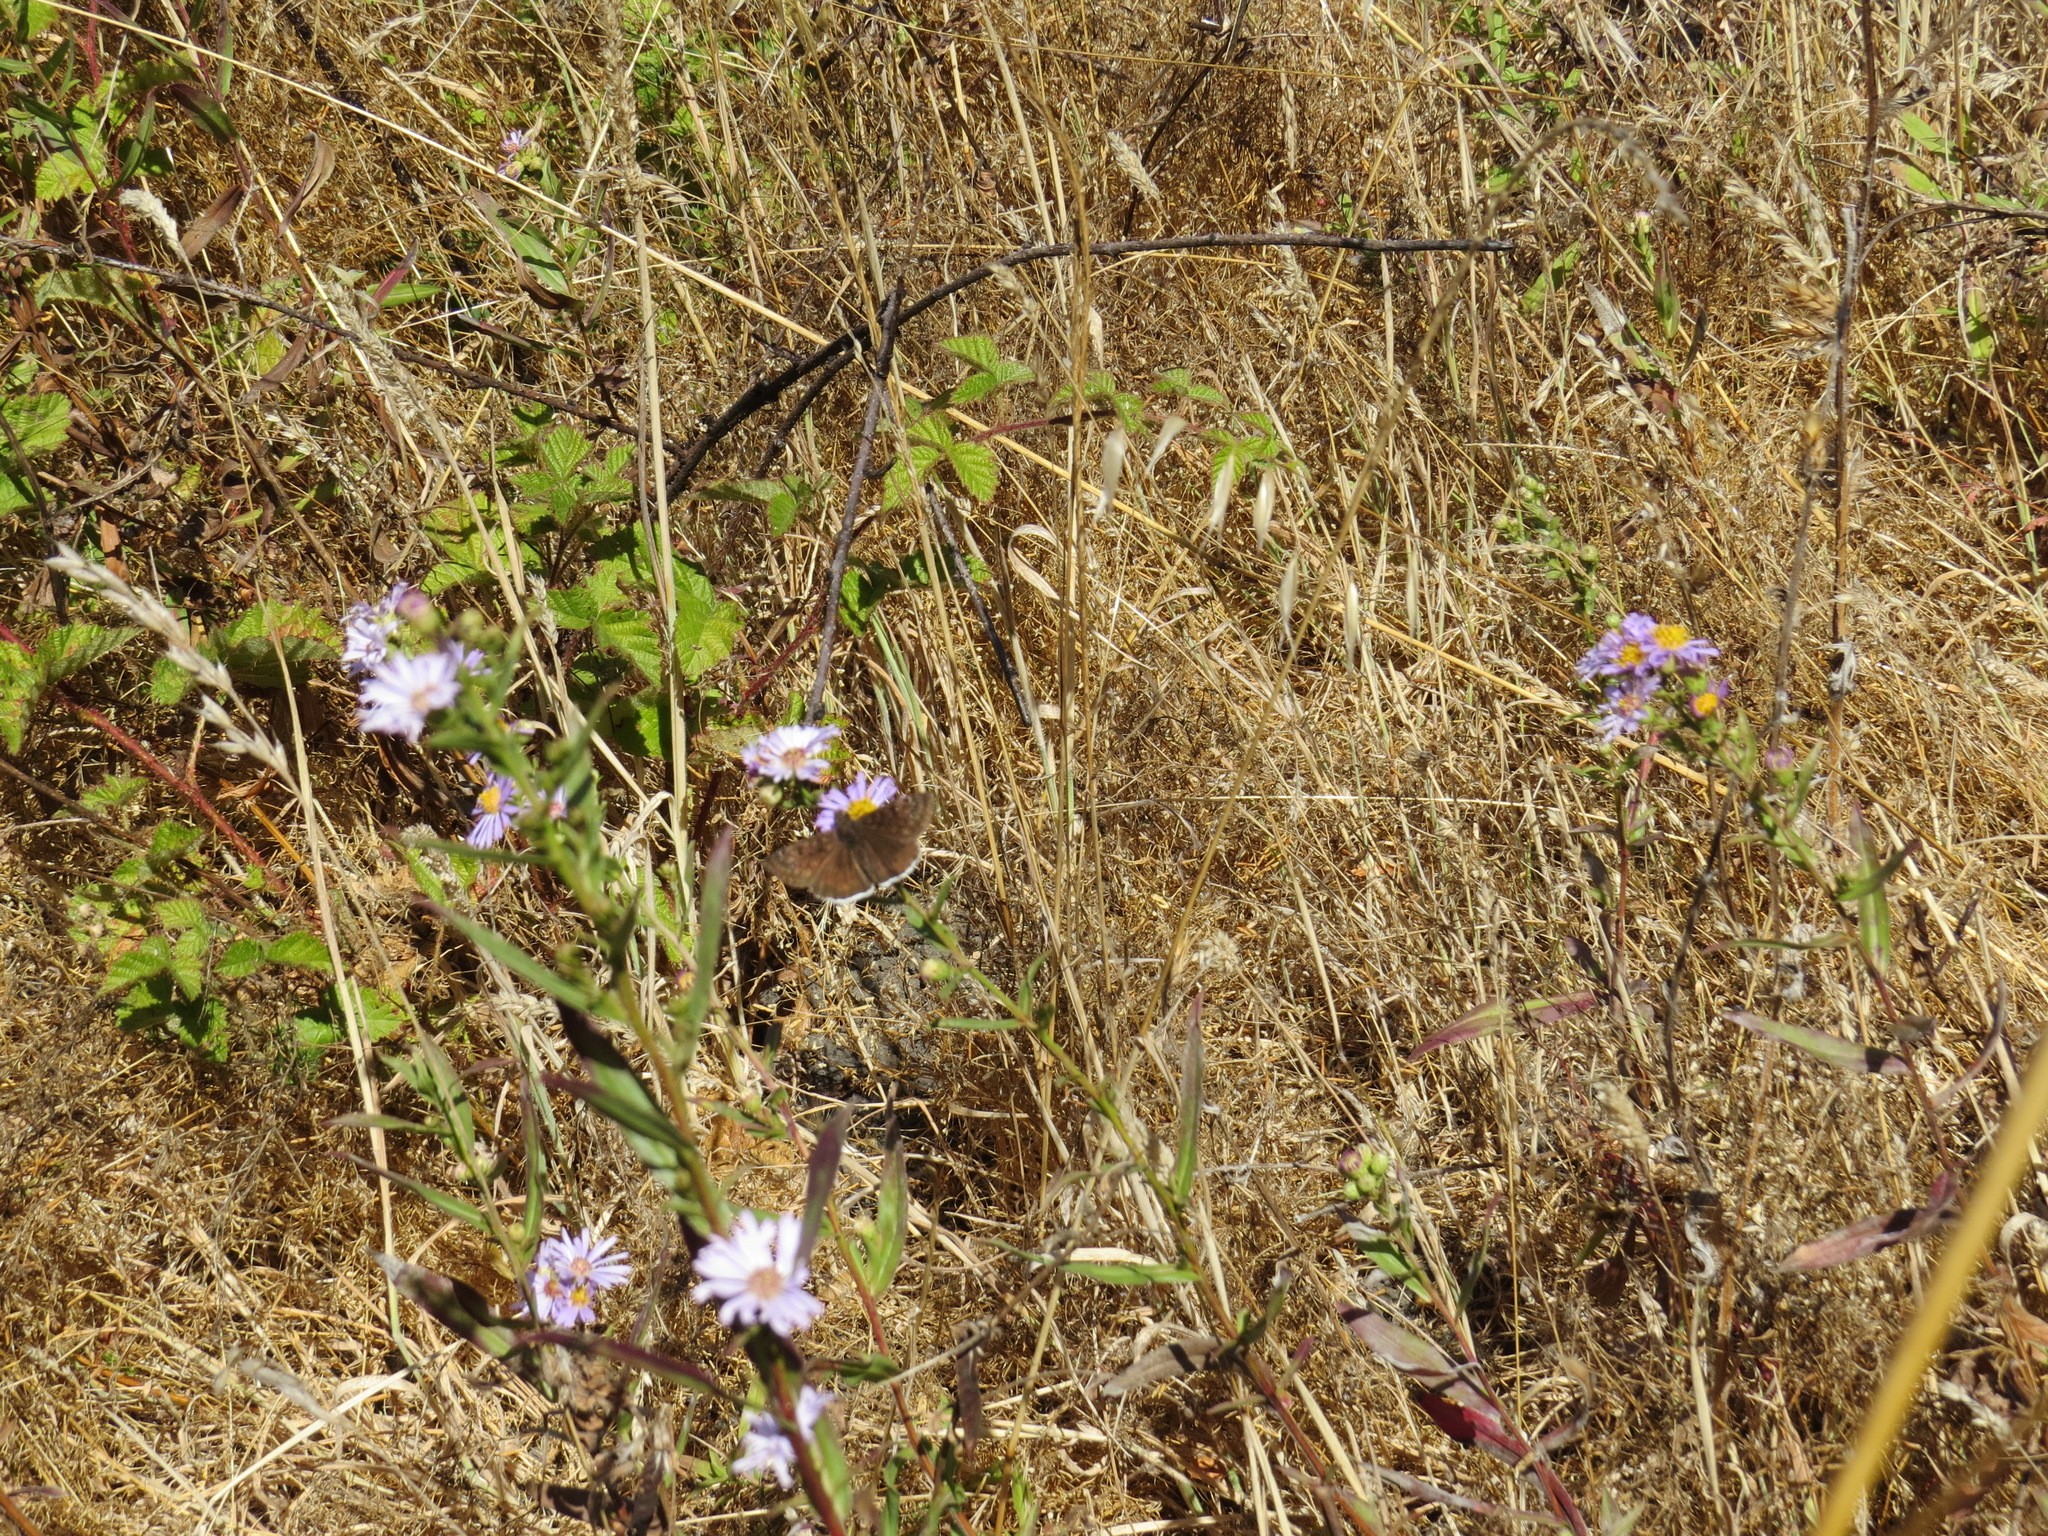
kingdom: Animalia
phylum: Arthropoda
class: Insecta
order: Lepidoptera
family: Hesperiidae
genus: Erynnis
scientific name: Erynnis tristis
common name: Mournful duskywing
